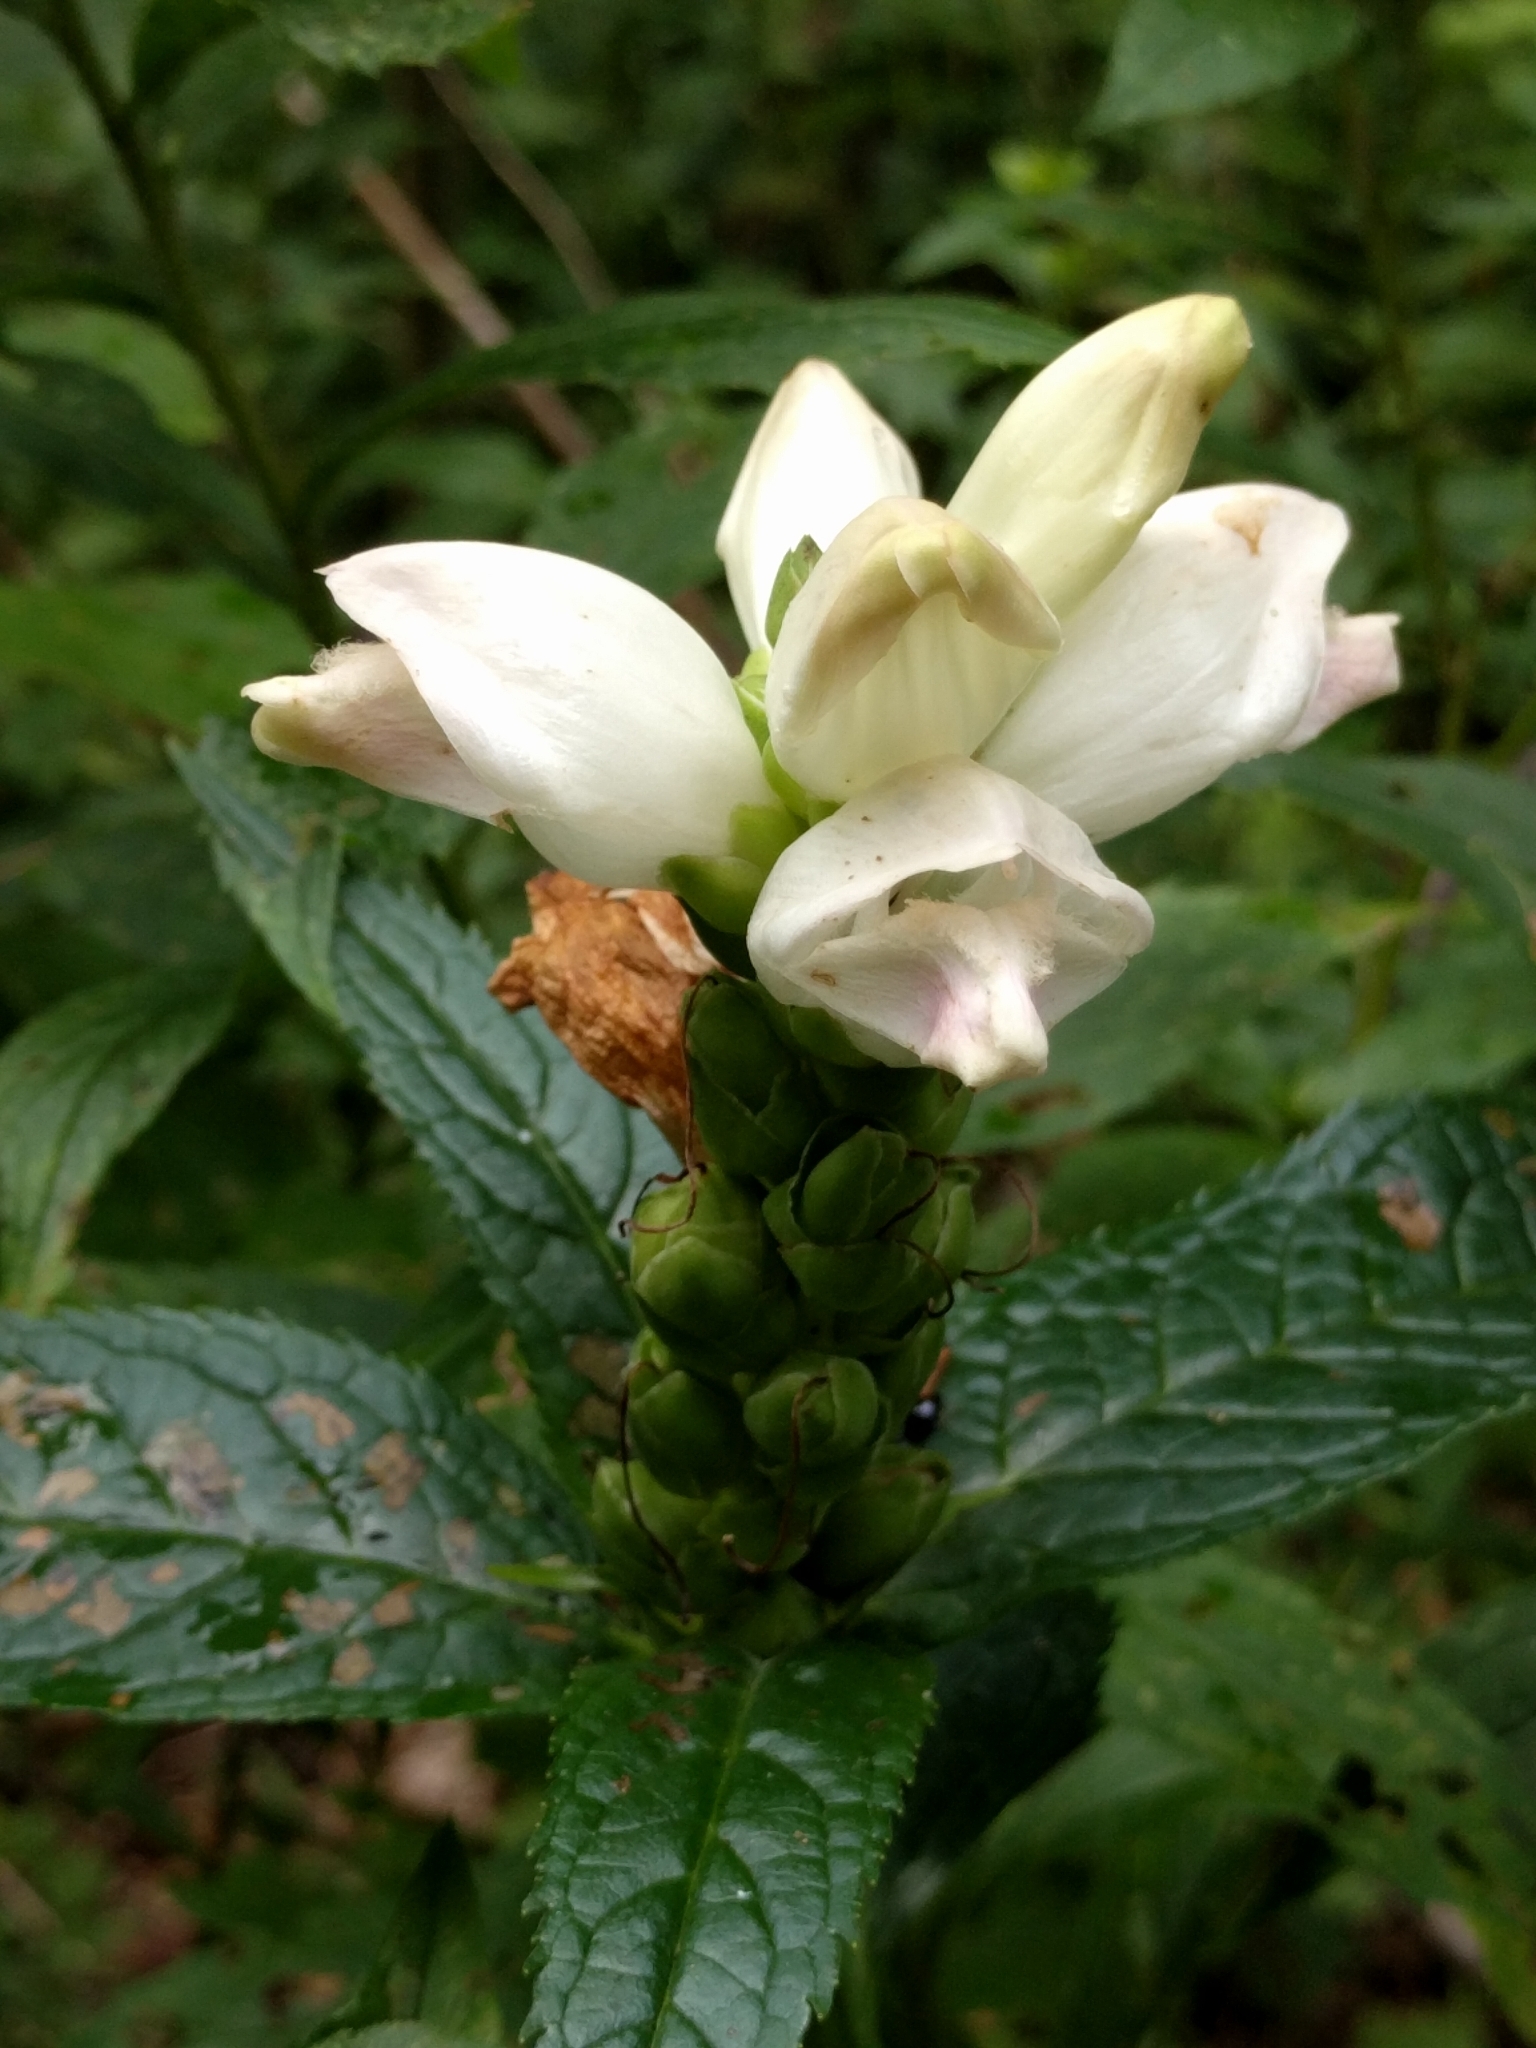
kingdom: Plantae
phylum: Tracheophyta
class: Magnoliopsida
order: Lamiales
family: Plantaginaceae
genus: Chelone
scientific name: Chelone glabra
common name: Snakehead
